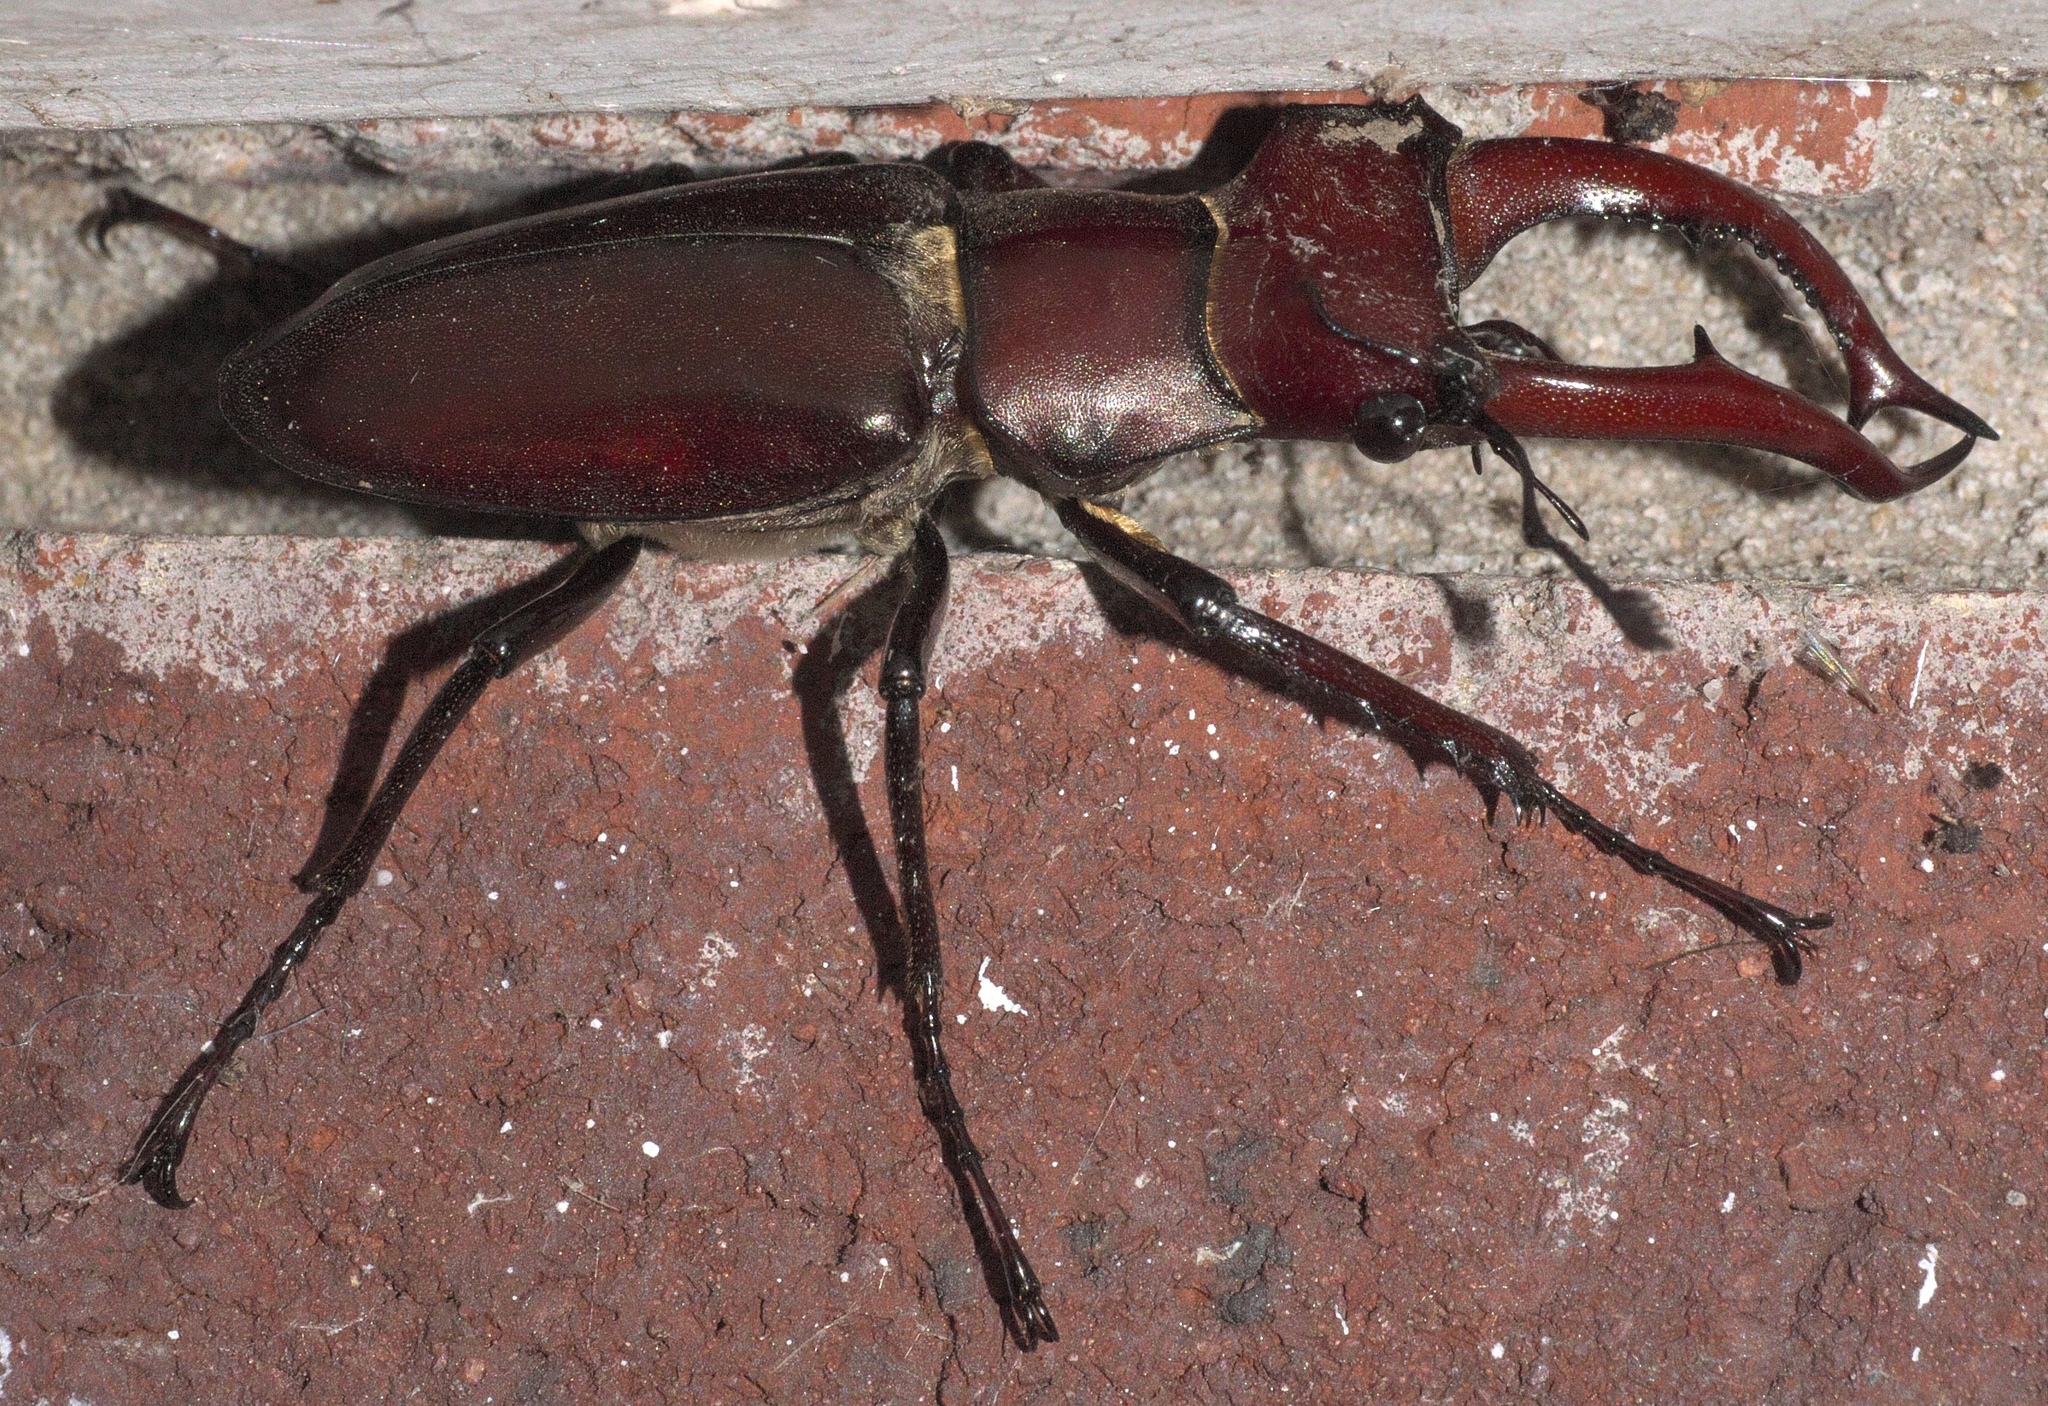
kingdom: Animalia
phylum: Arthropoda
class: Insecta
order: Coleoptera
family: Lucanidae
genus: Lucanus
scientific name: Lucanus elaphus
